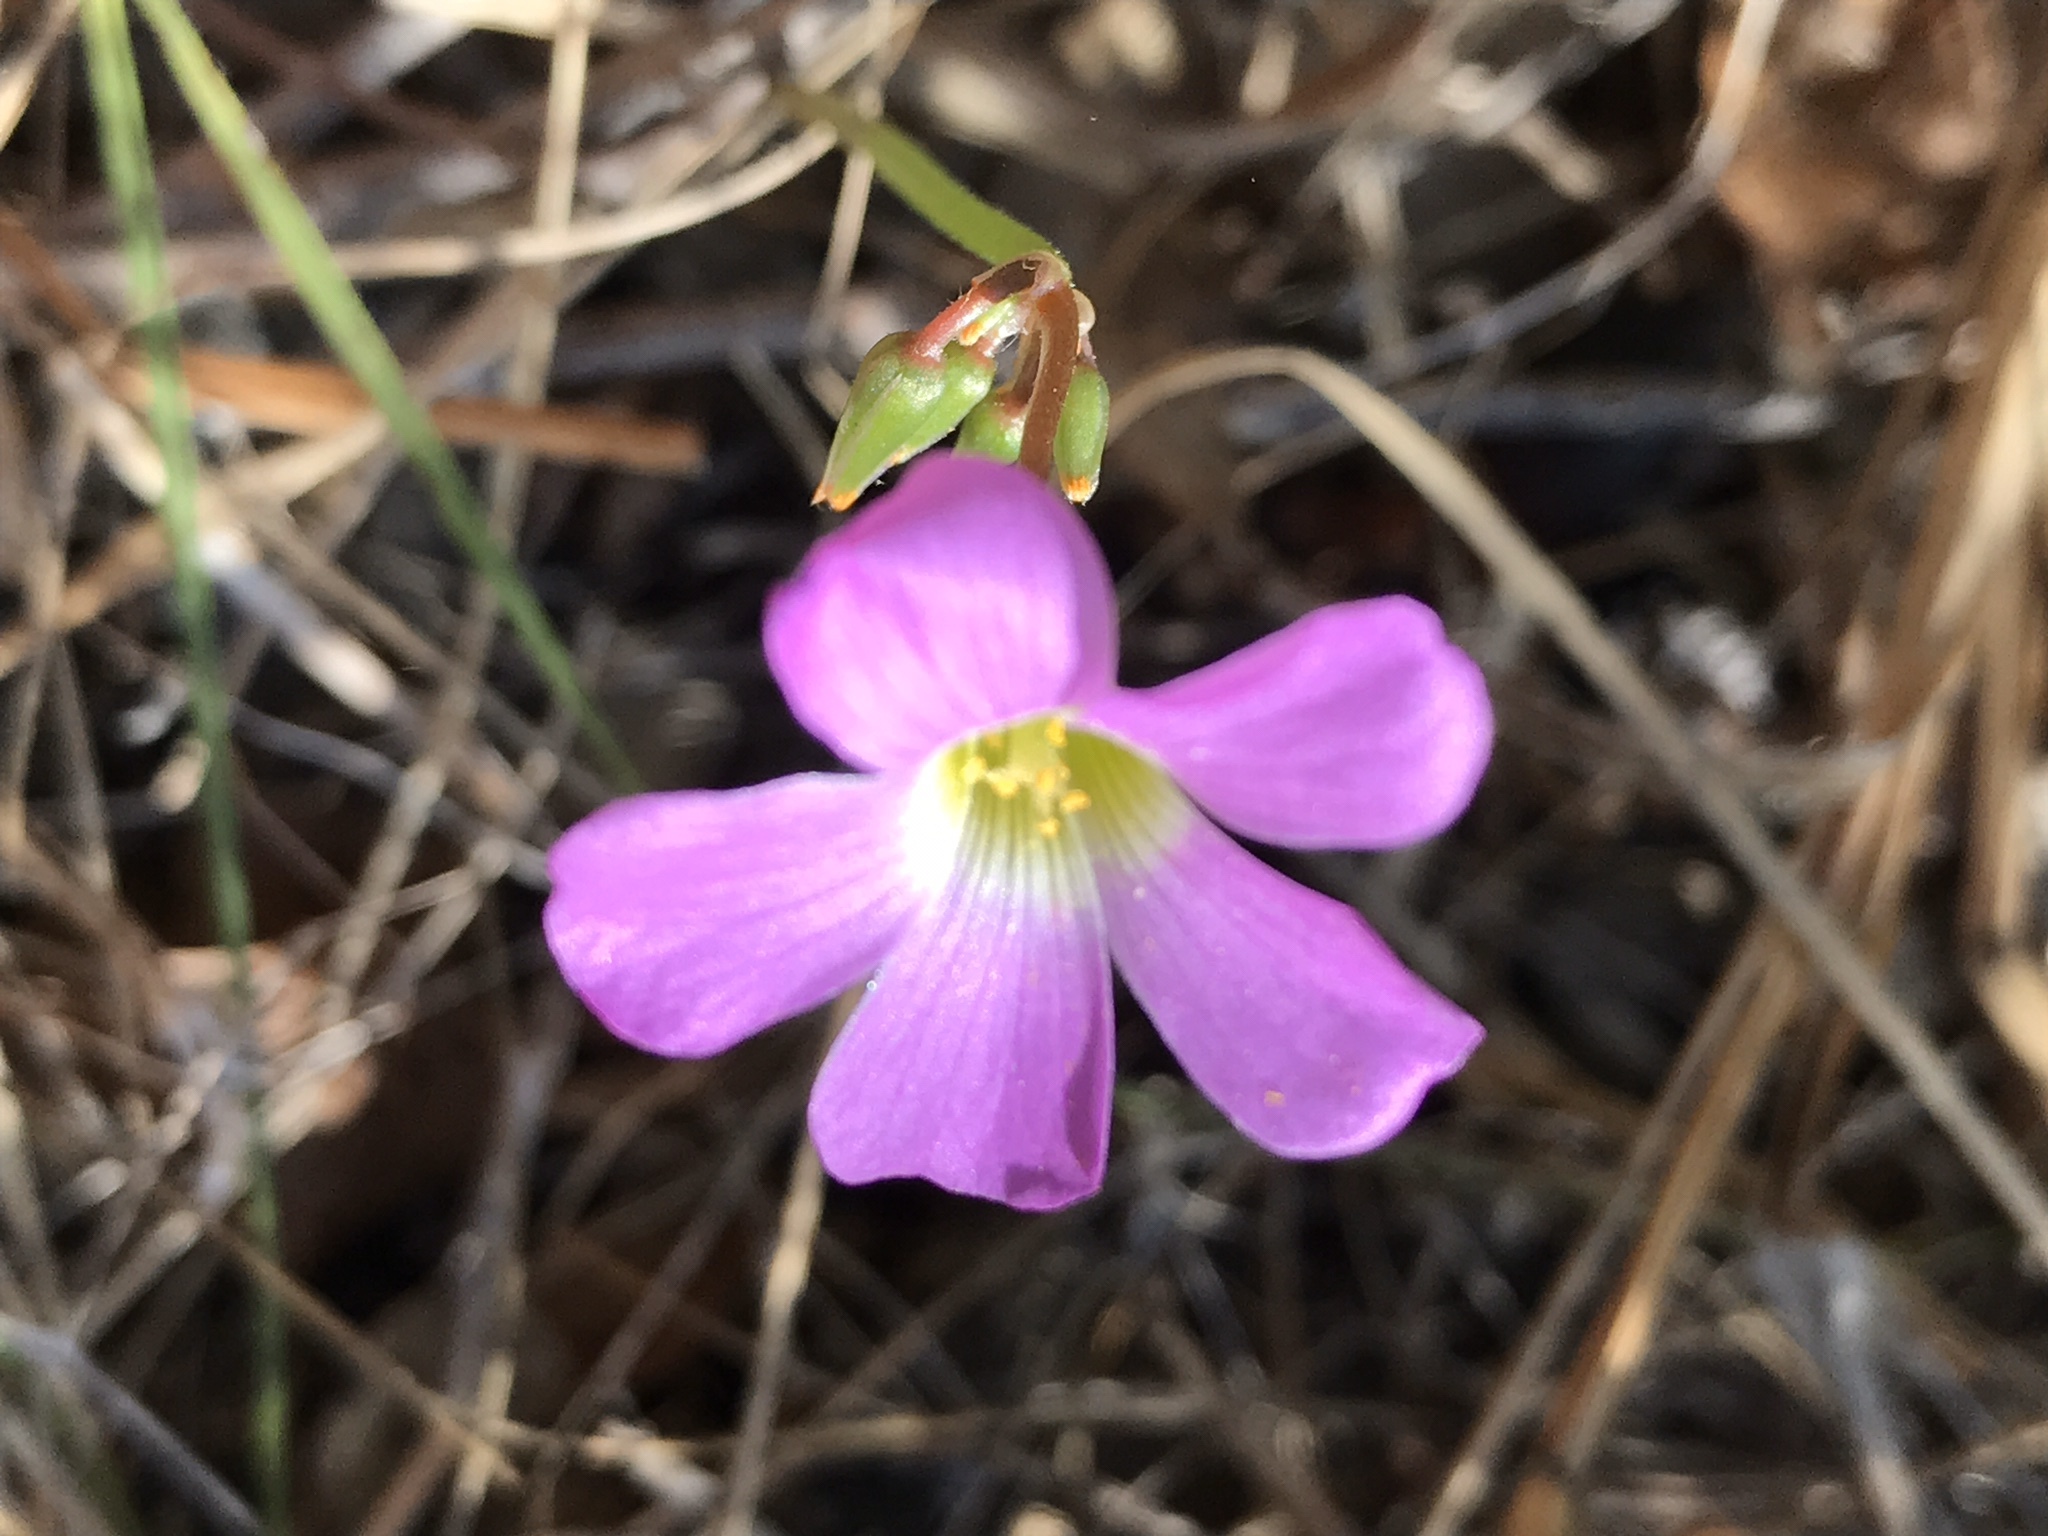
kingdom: Plantae
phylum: Tracheophyta
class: Magnoliopsida
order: Oxalidales
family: Oxalidaceae
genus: Oxalis
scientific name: Oxalis drummondii
